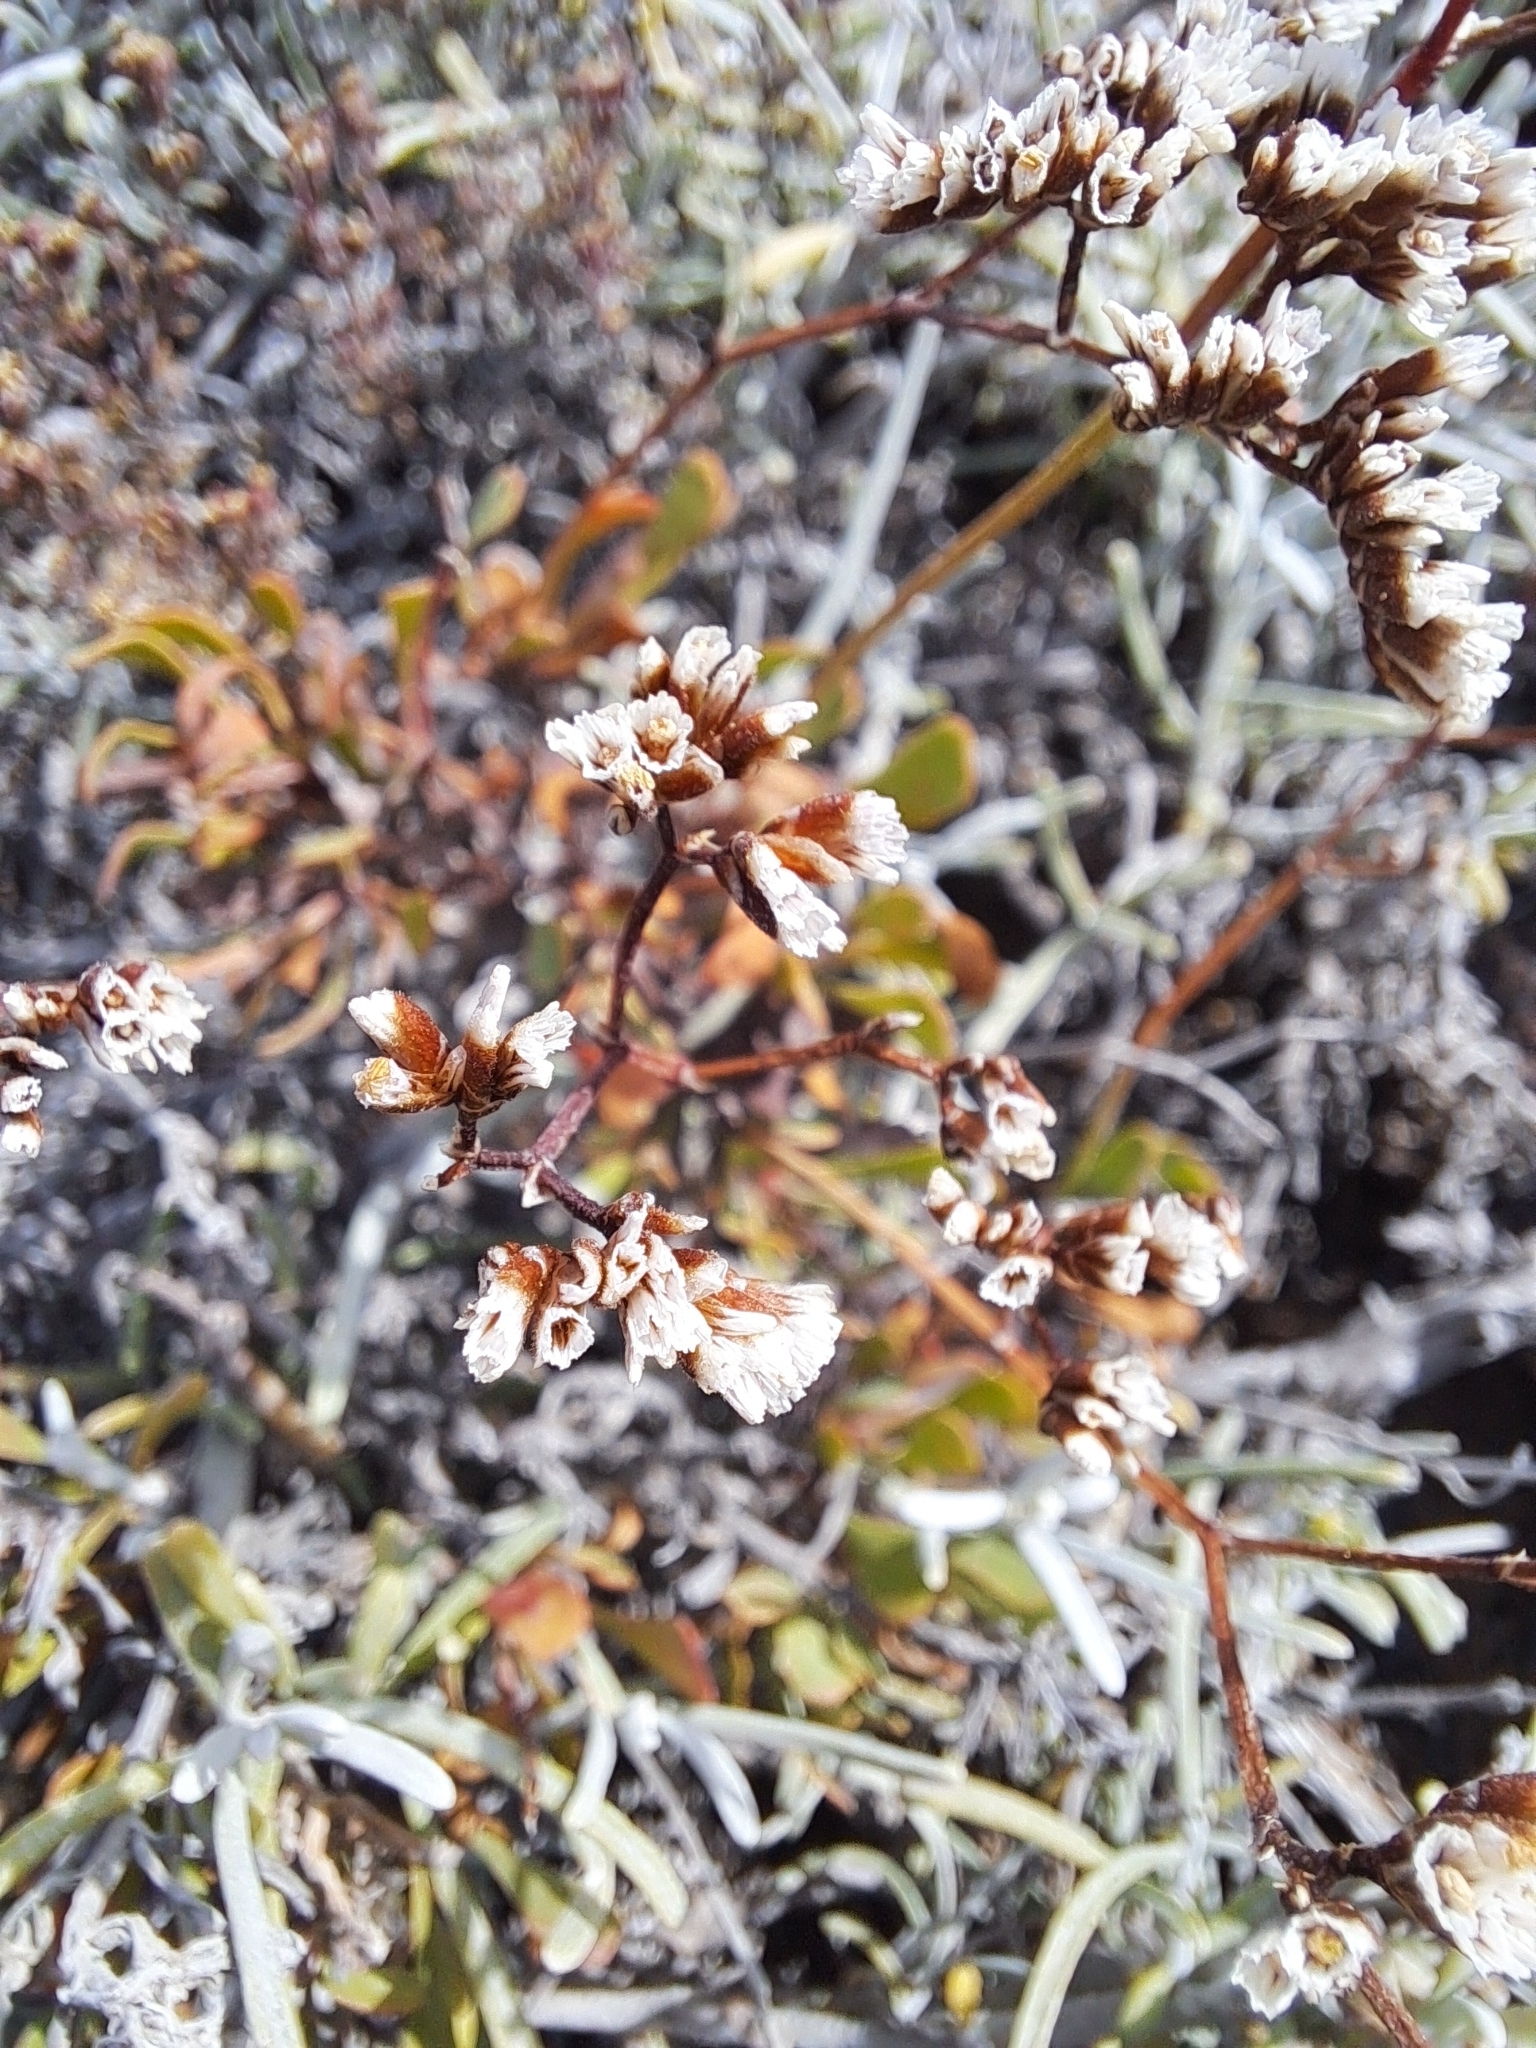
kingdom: Plantae
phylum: Tracheophyta
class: Magnoliopsida
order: Caryophyllales
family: Plumbaginaceae
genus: Limonium
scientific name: Limonium pectinatum
